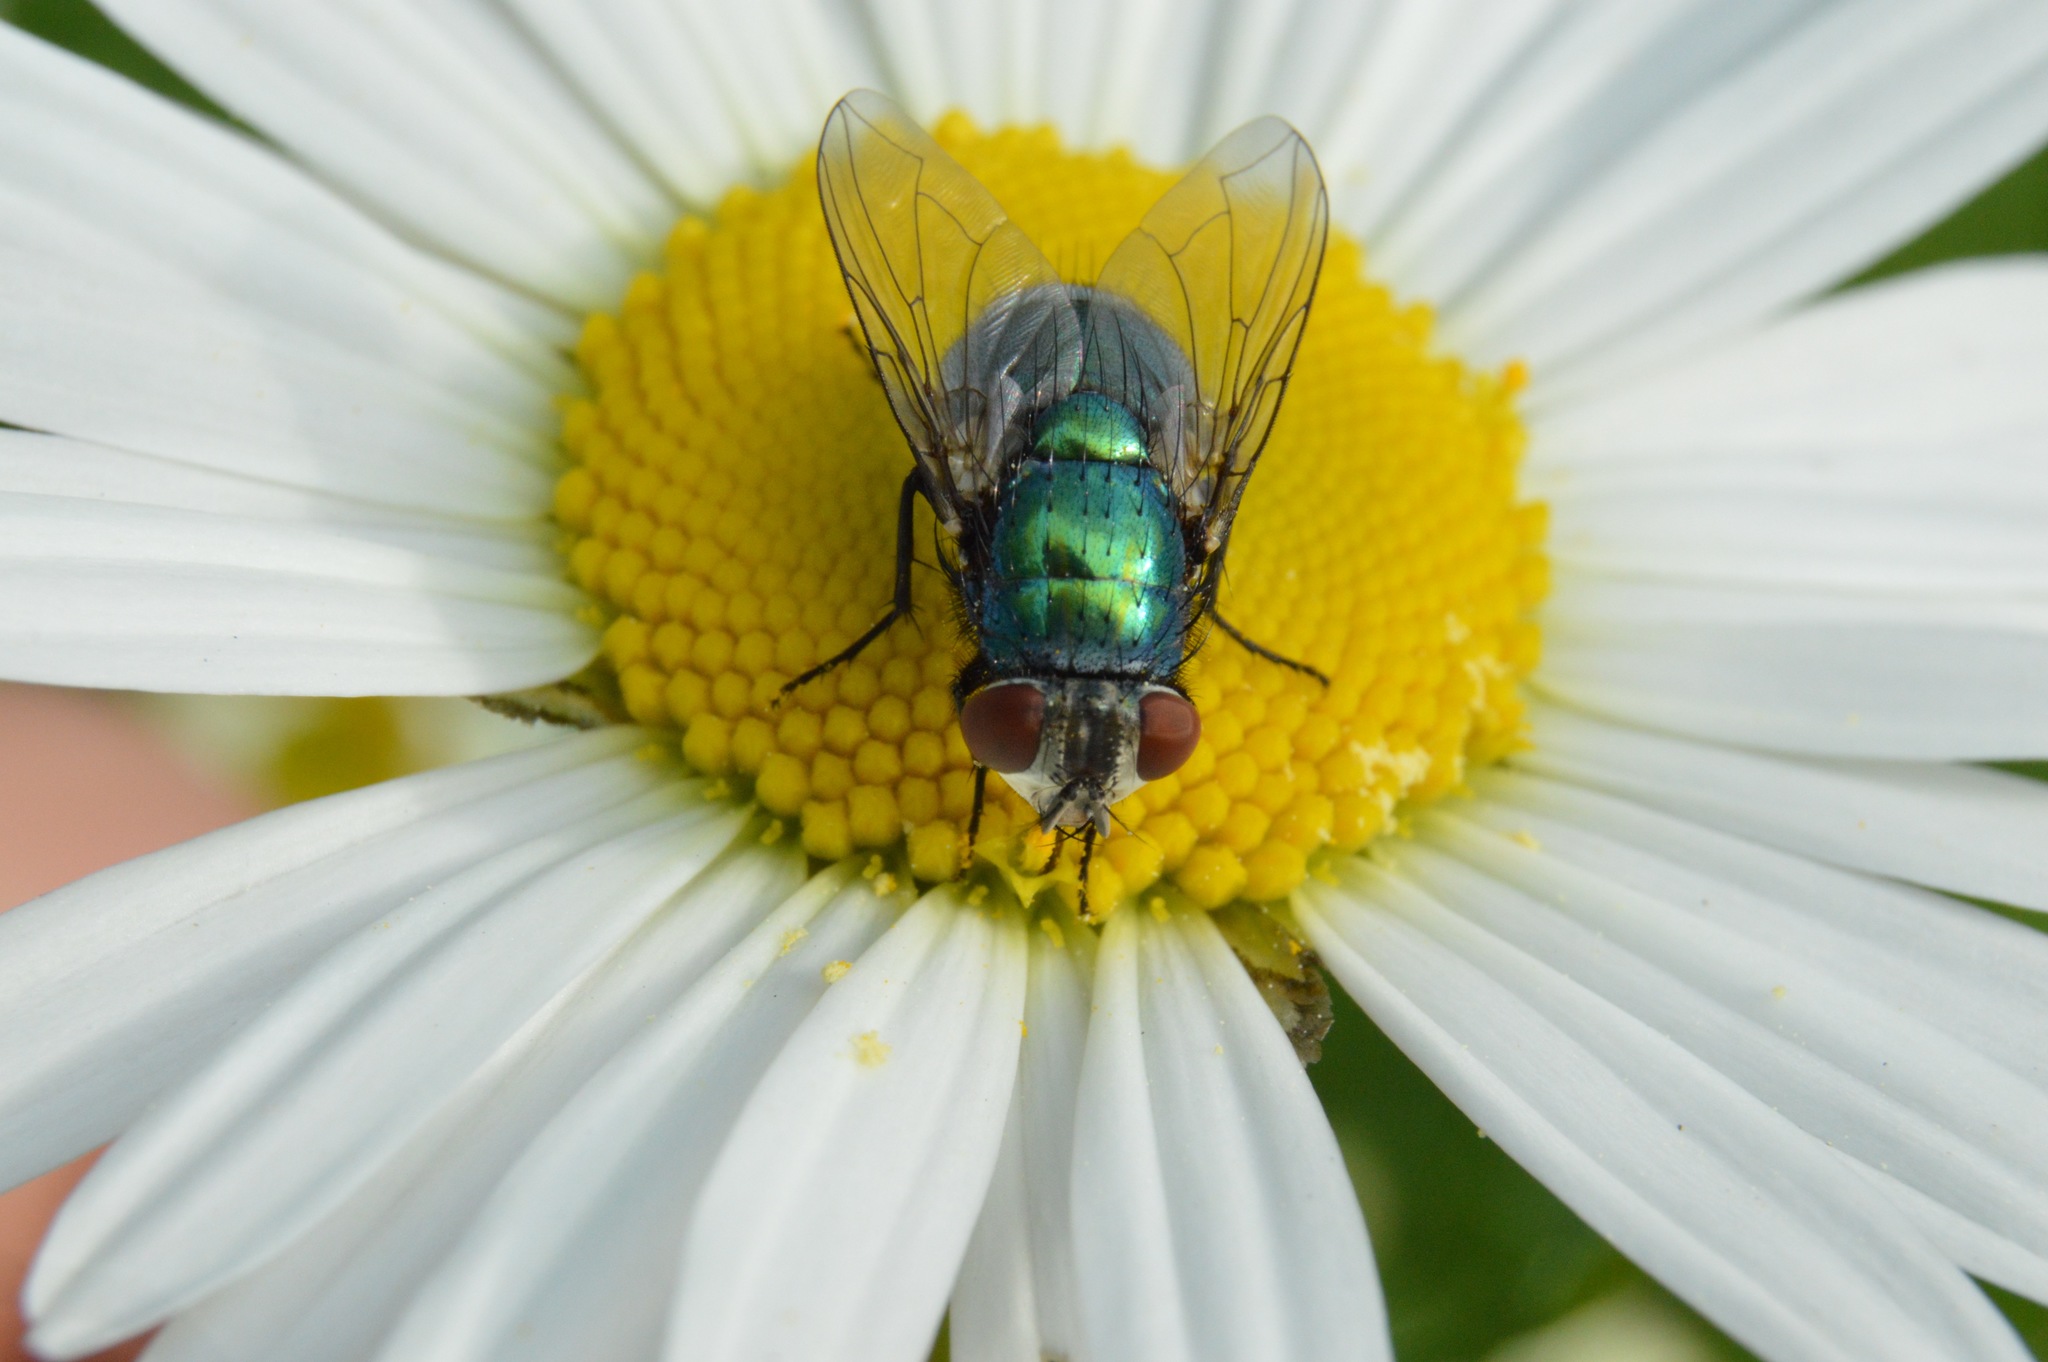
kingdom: Animalia
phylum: Arthropoda
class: Insecta
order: Diptera
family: Calliphoridae
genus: Lucilia
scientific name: Lucilia sericata
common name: Blow fly
